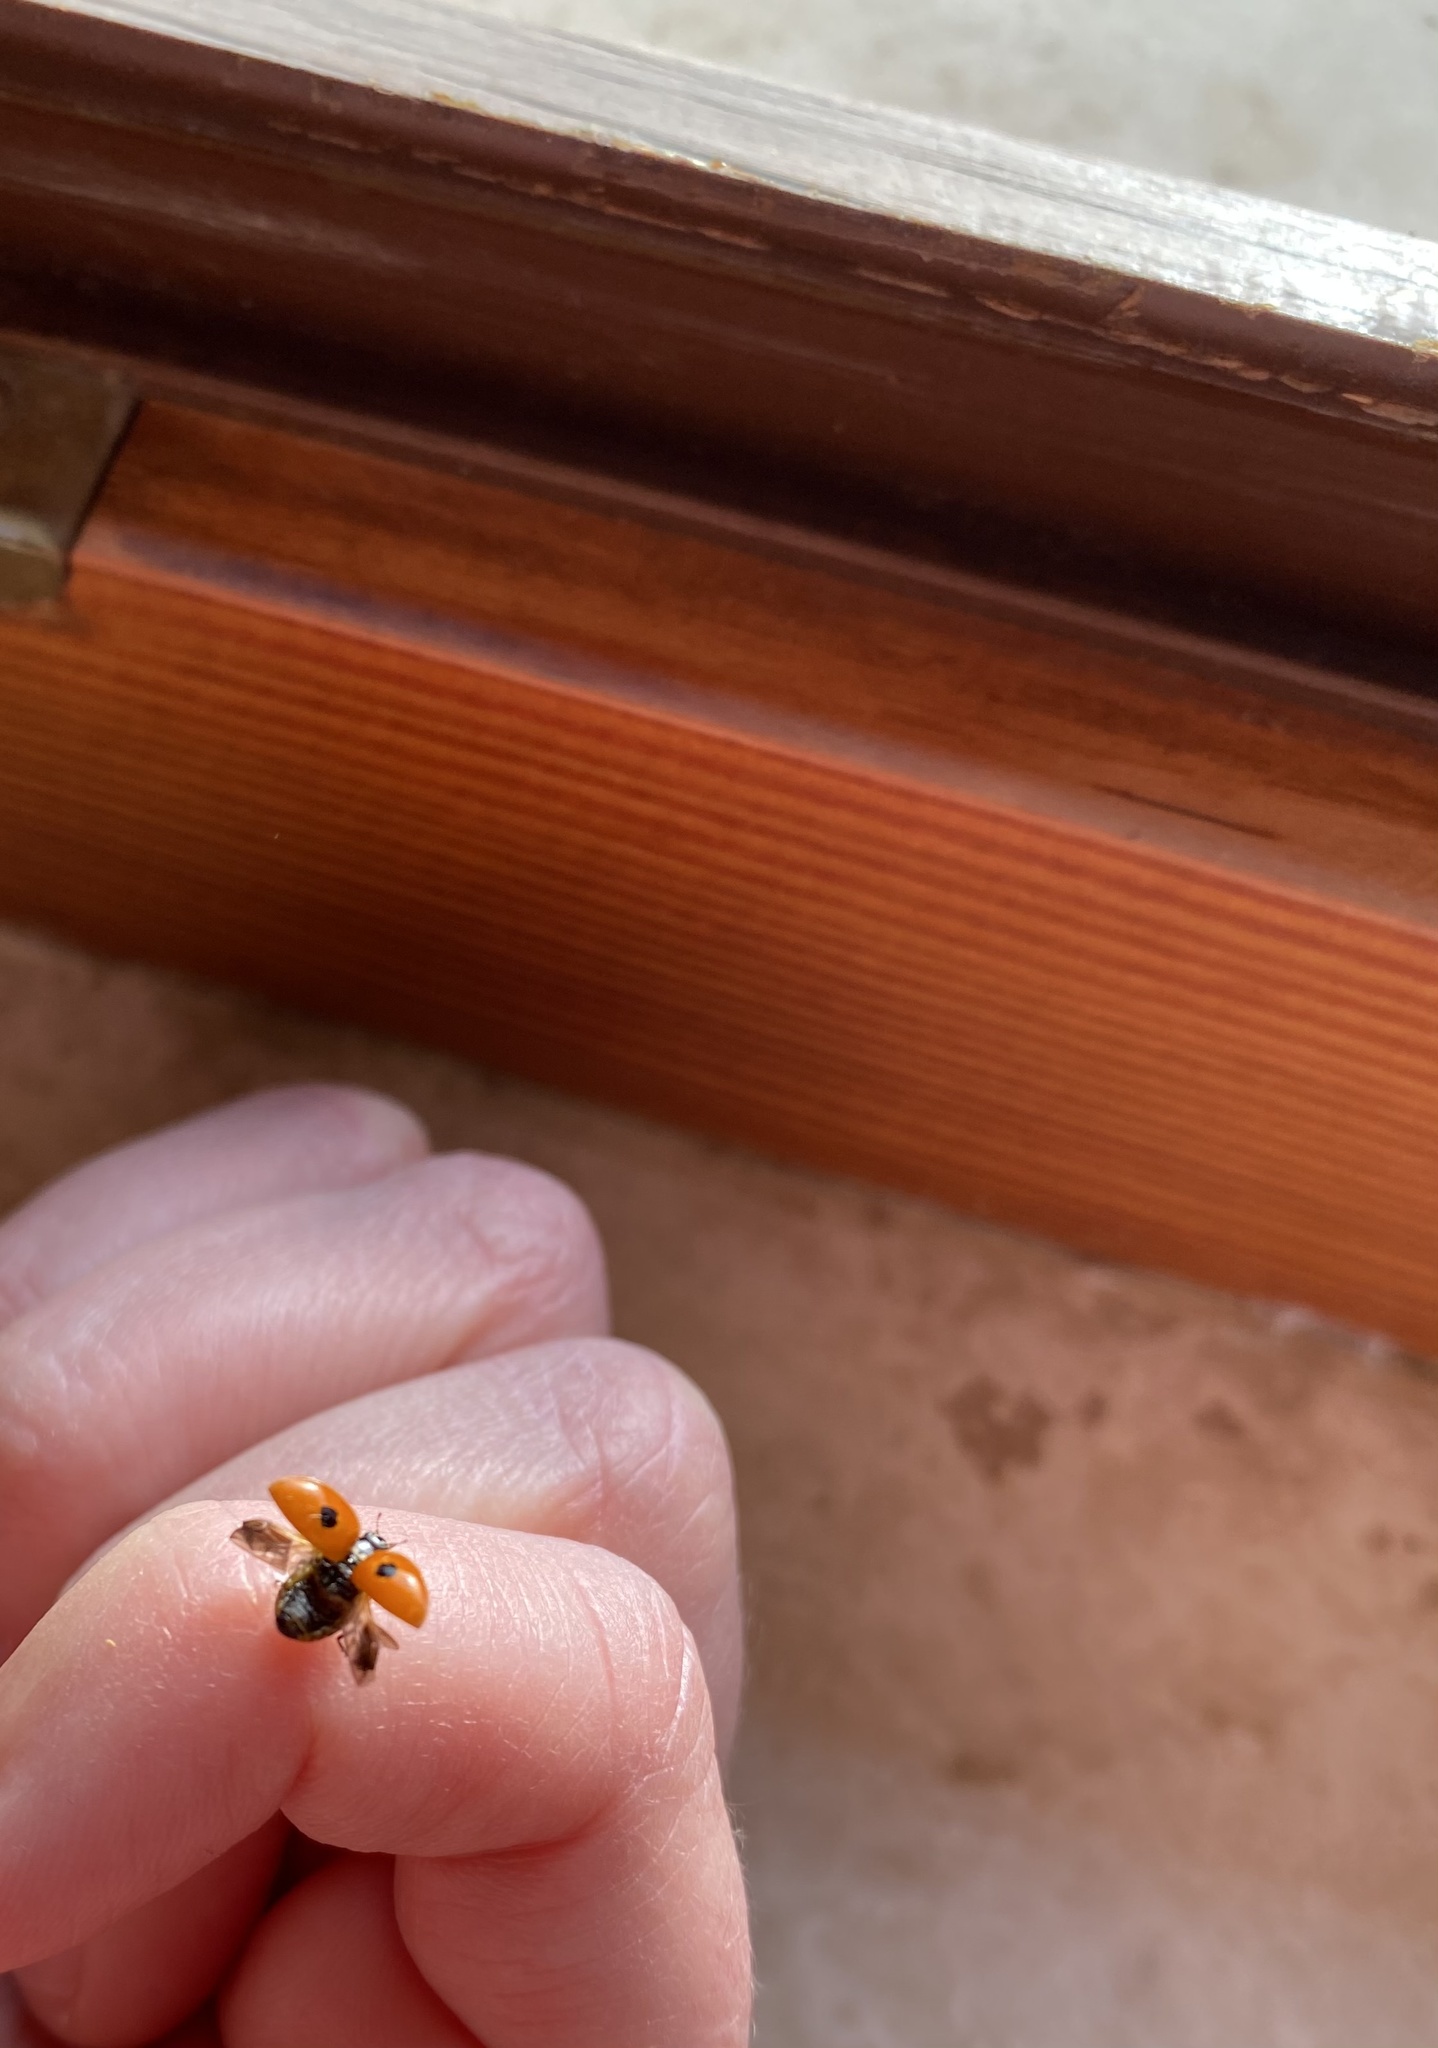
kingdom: Animalia
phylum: Arthropoda
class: Insecta
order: Coleoptera
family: Coccinellidae
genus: Adalia
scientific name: Adalia bipunctata
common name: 2-spot ladybird
